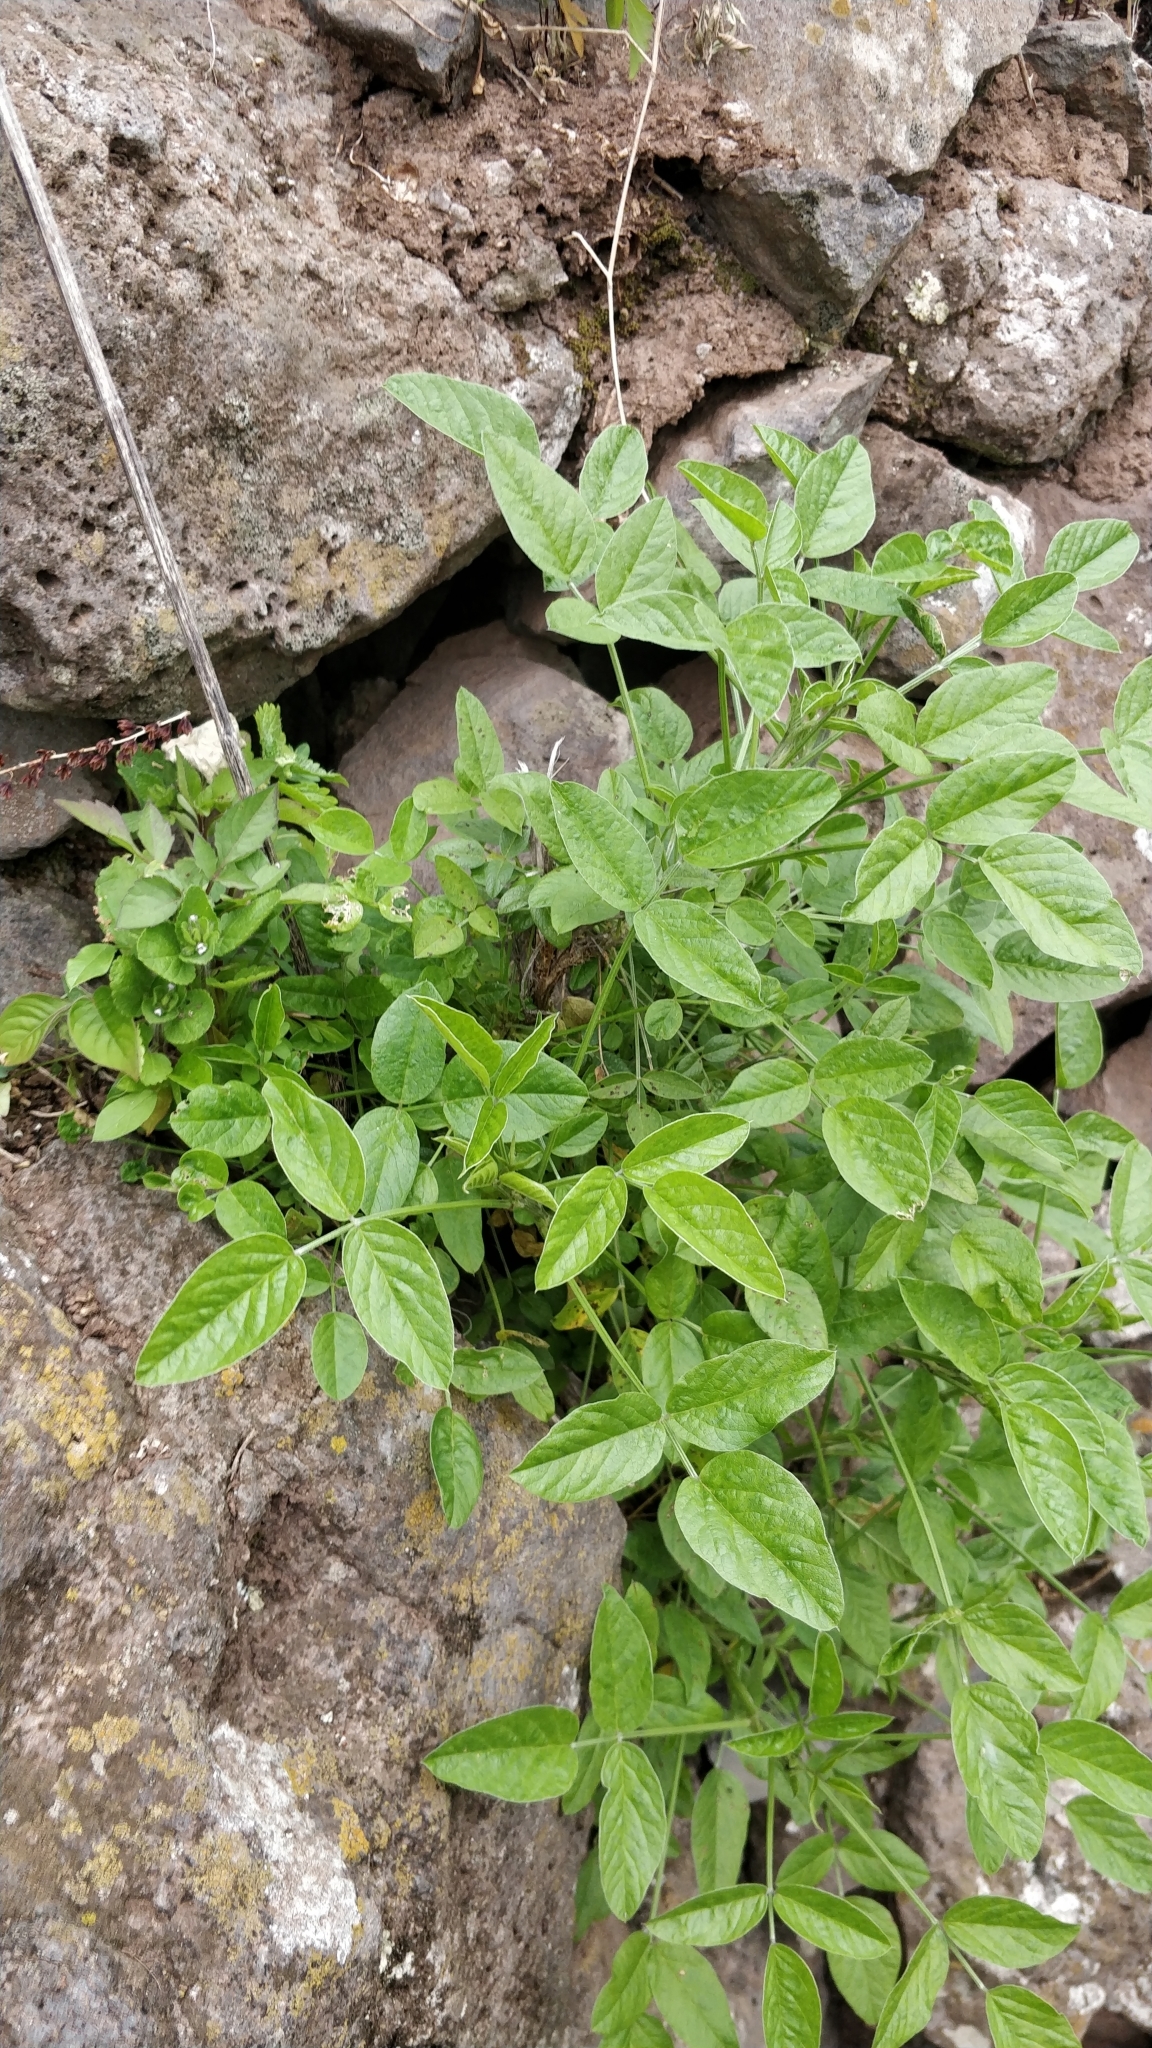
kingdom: Plantae
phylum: Tracheophyta
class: Magnoliopsida
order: Fabales
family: Fabaceae
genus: Bituminaria
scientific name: Bituminaria bituminosa
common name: Arabian pea
